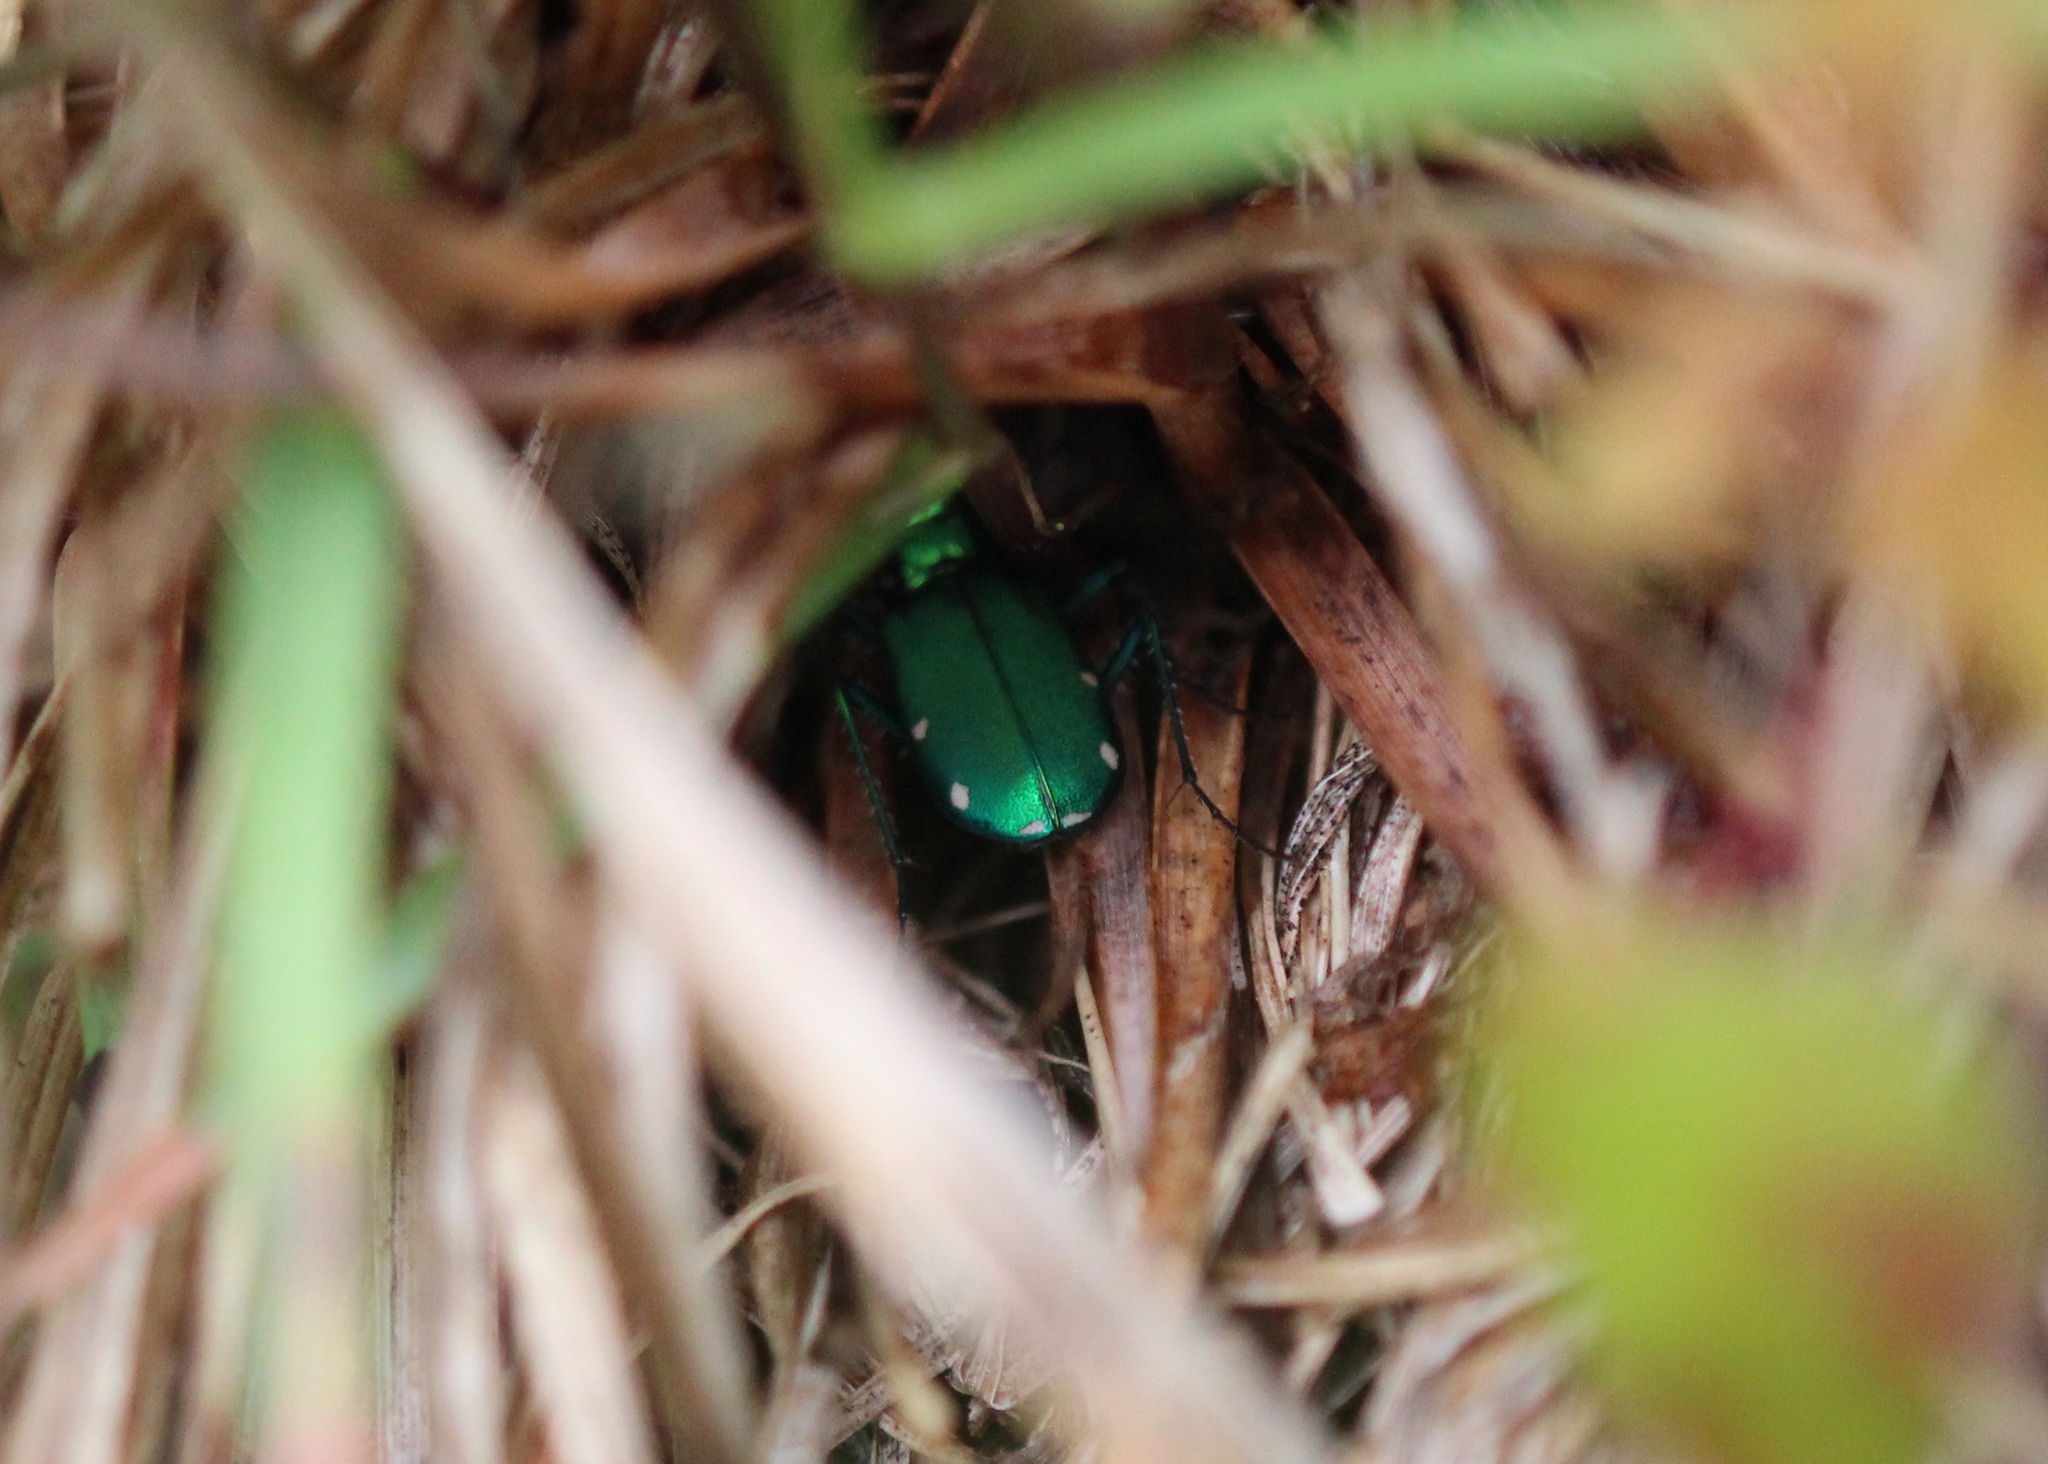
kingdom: Animalia
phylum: Arthropoda
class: Insecta
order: Coleoptera
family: Carabidae
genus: Cicindela
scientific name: Cicindela sexguttata
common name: Six-spotted tiger beetle
